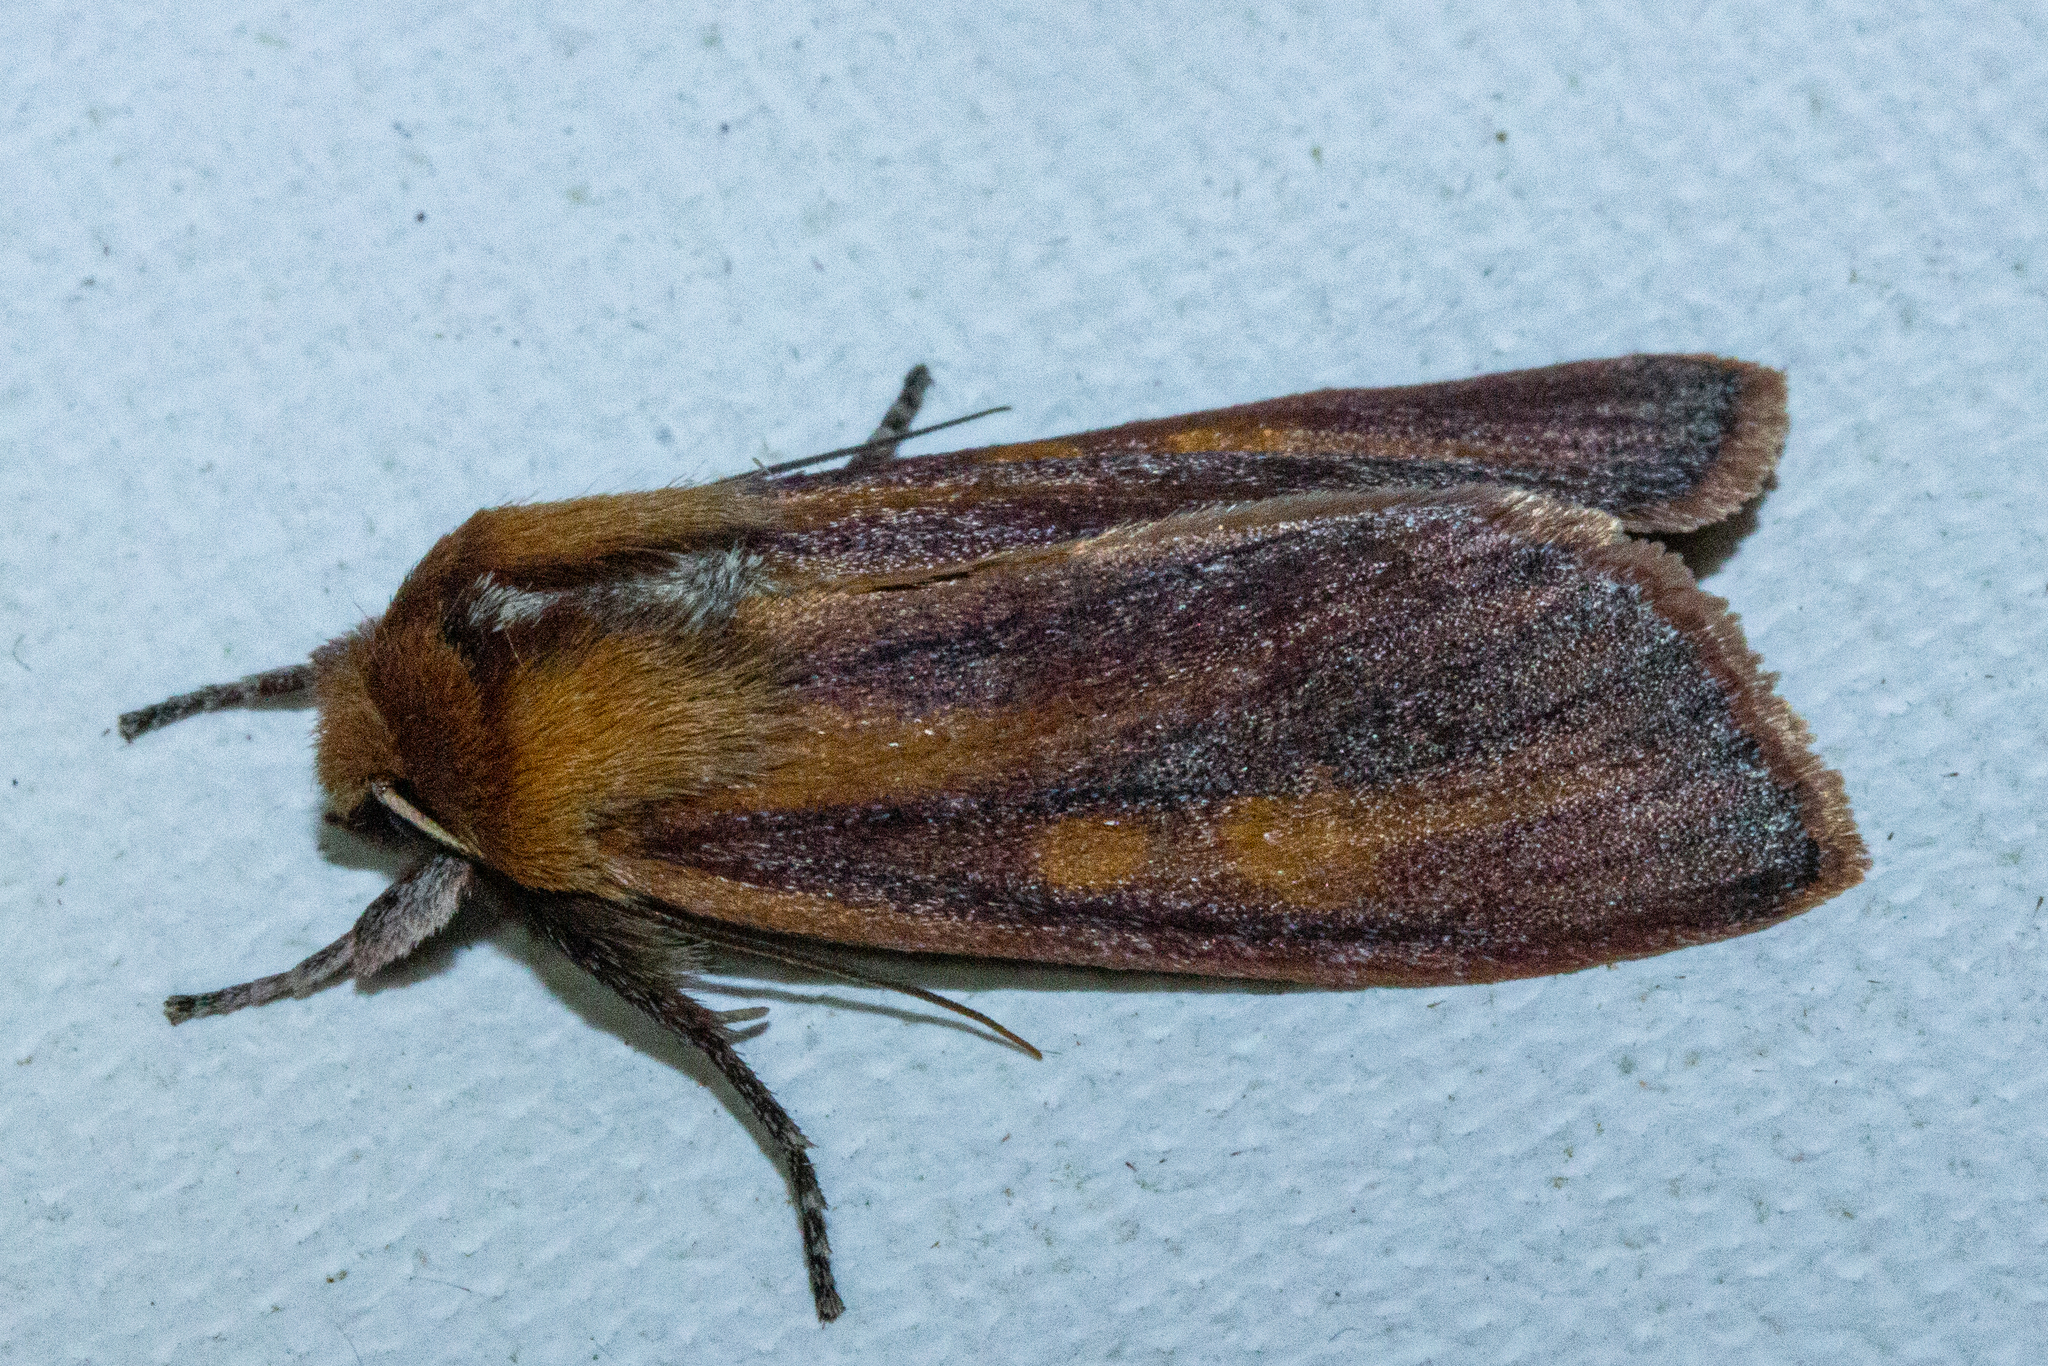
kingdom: Animalia
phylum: Arthropoda
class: Insecta
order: Lepidoptera
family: Noctuidae
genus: Ichneutica
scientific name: Ichneutica
